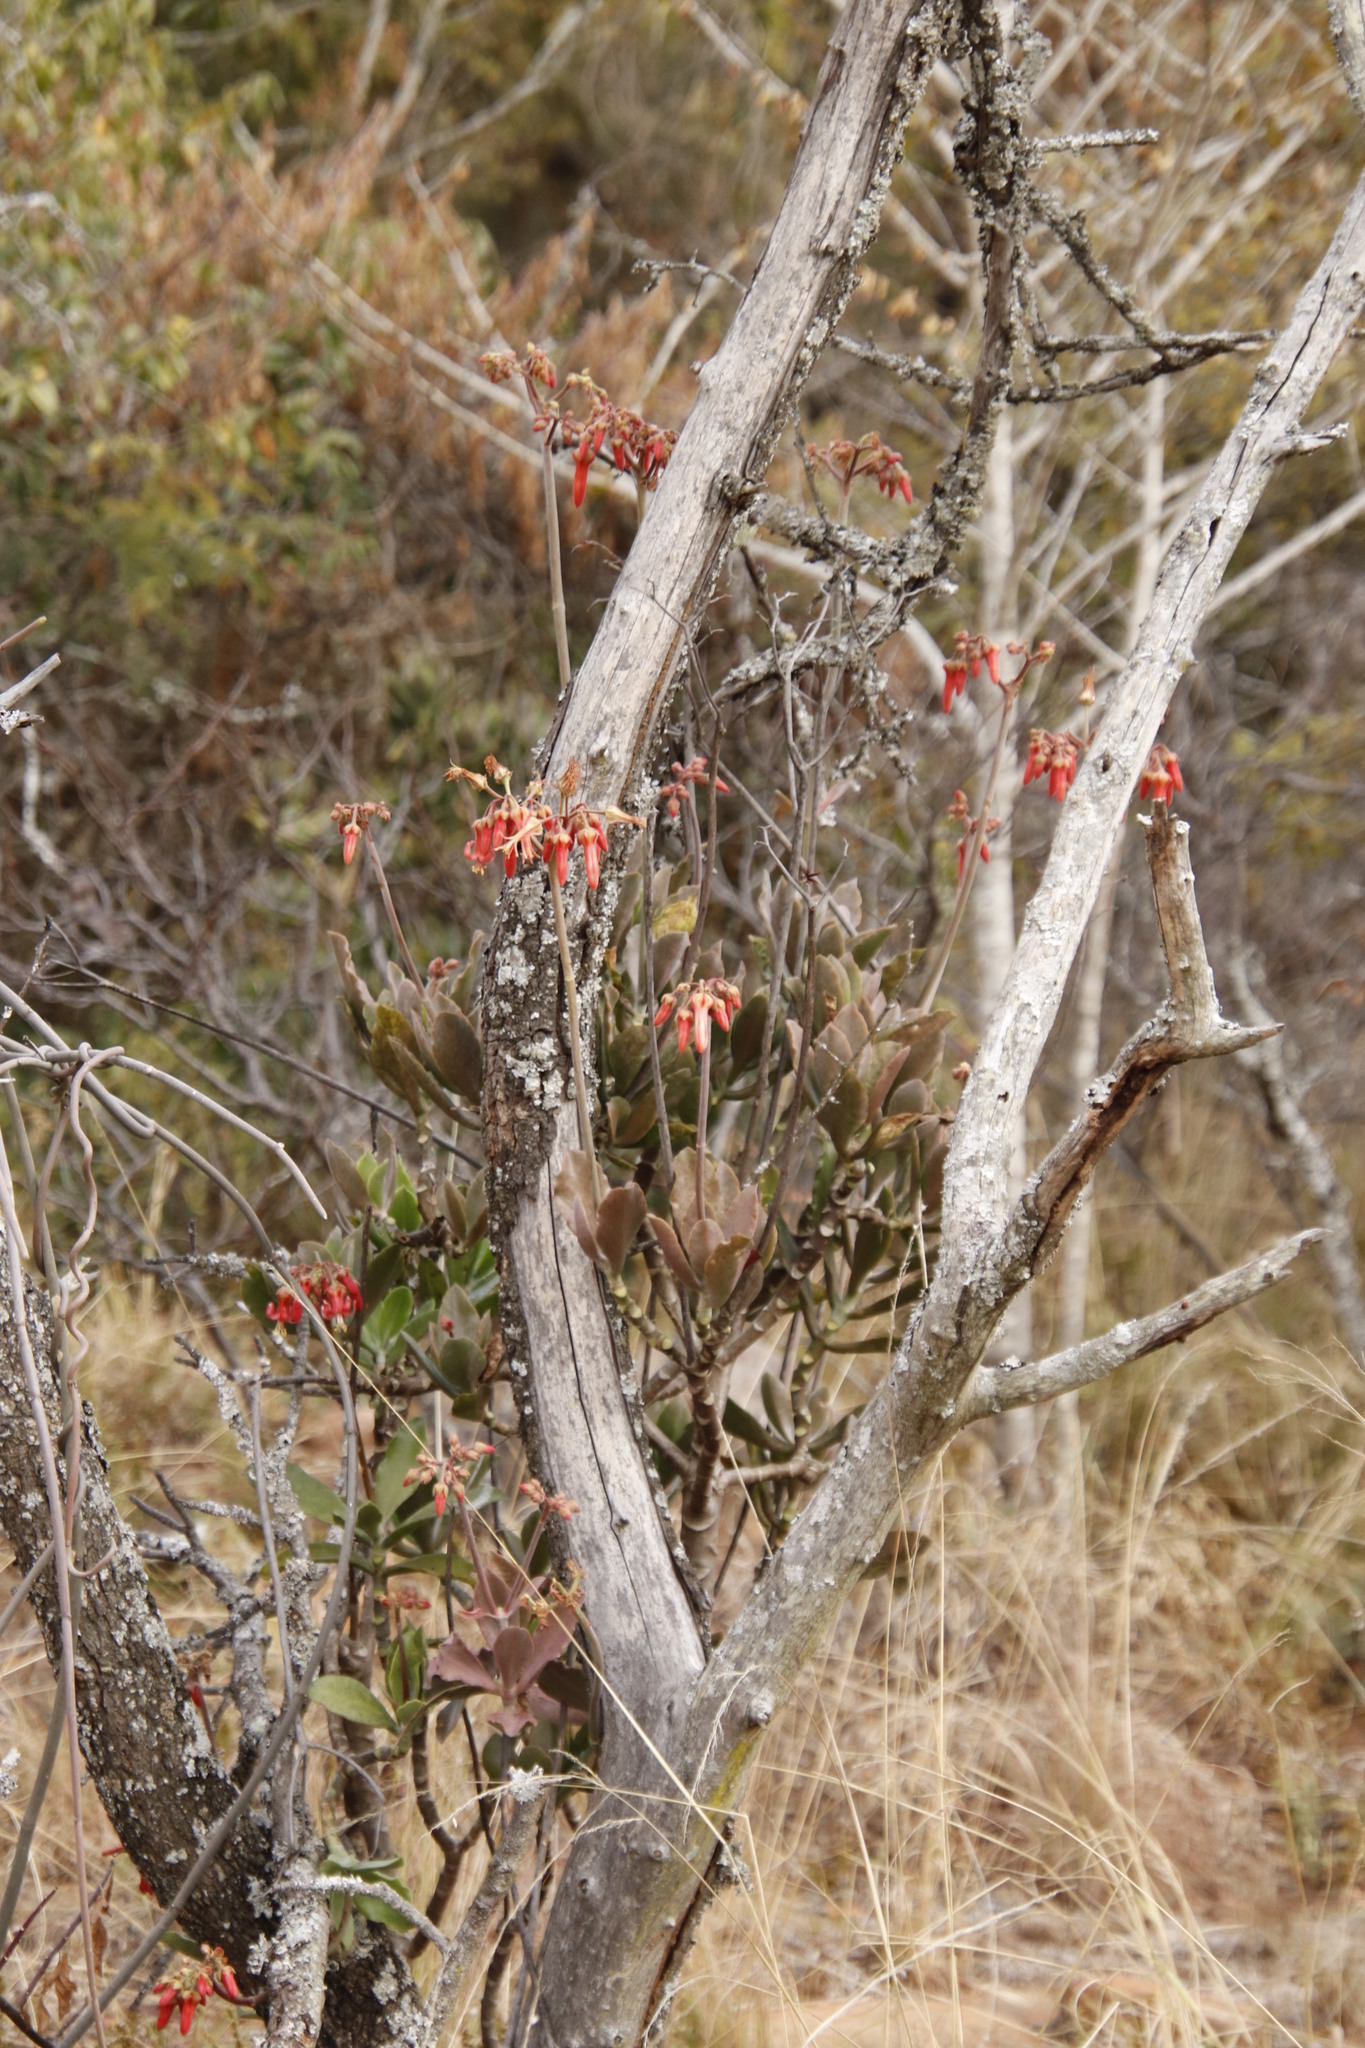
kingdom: Plantae
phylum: Tracheophyta
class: Magnoliopsida
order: Myrtales
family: Combretaceae
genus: Terminalia
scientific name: Terminalia sericea
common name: Clusterleaf
